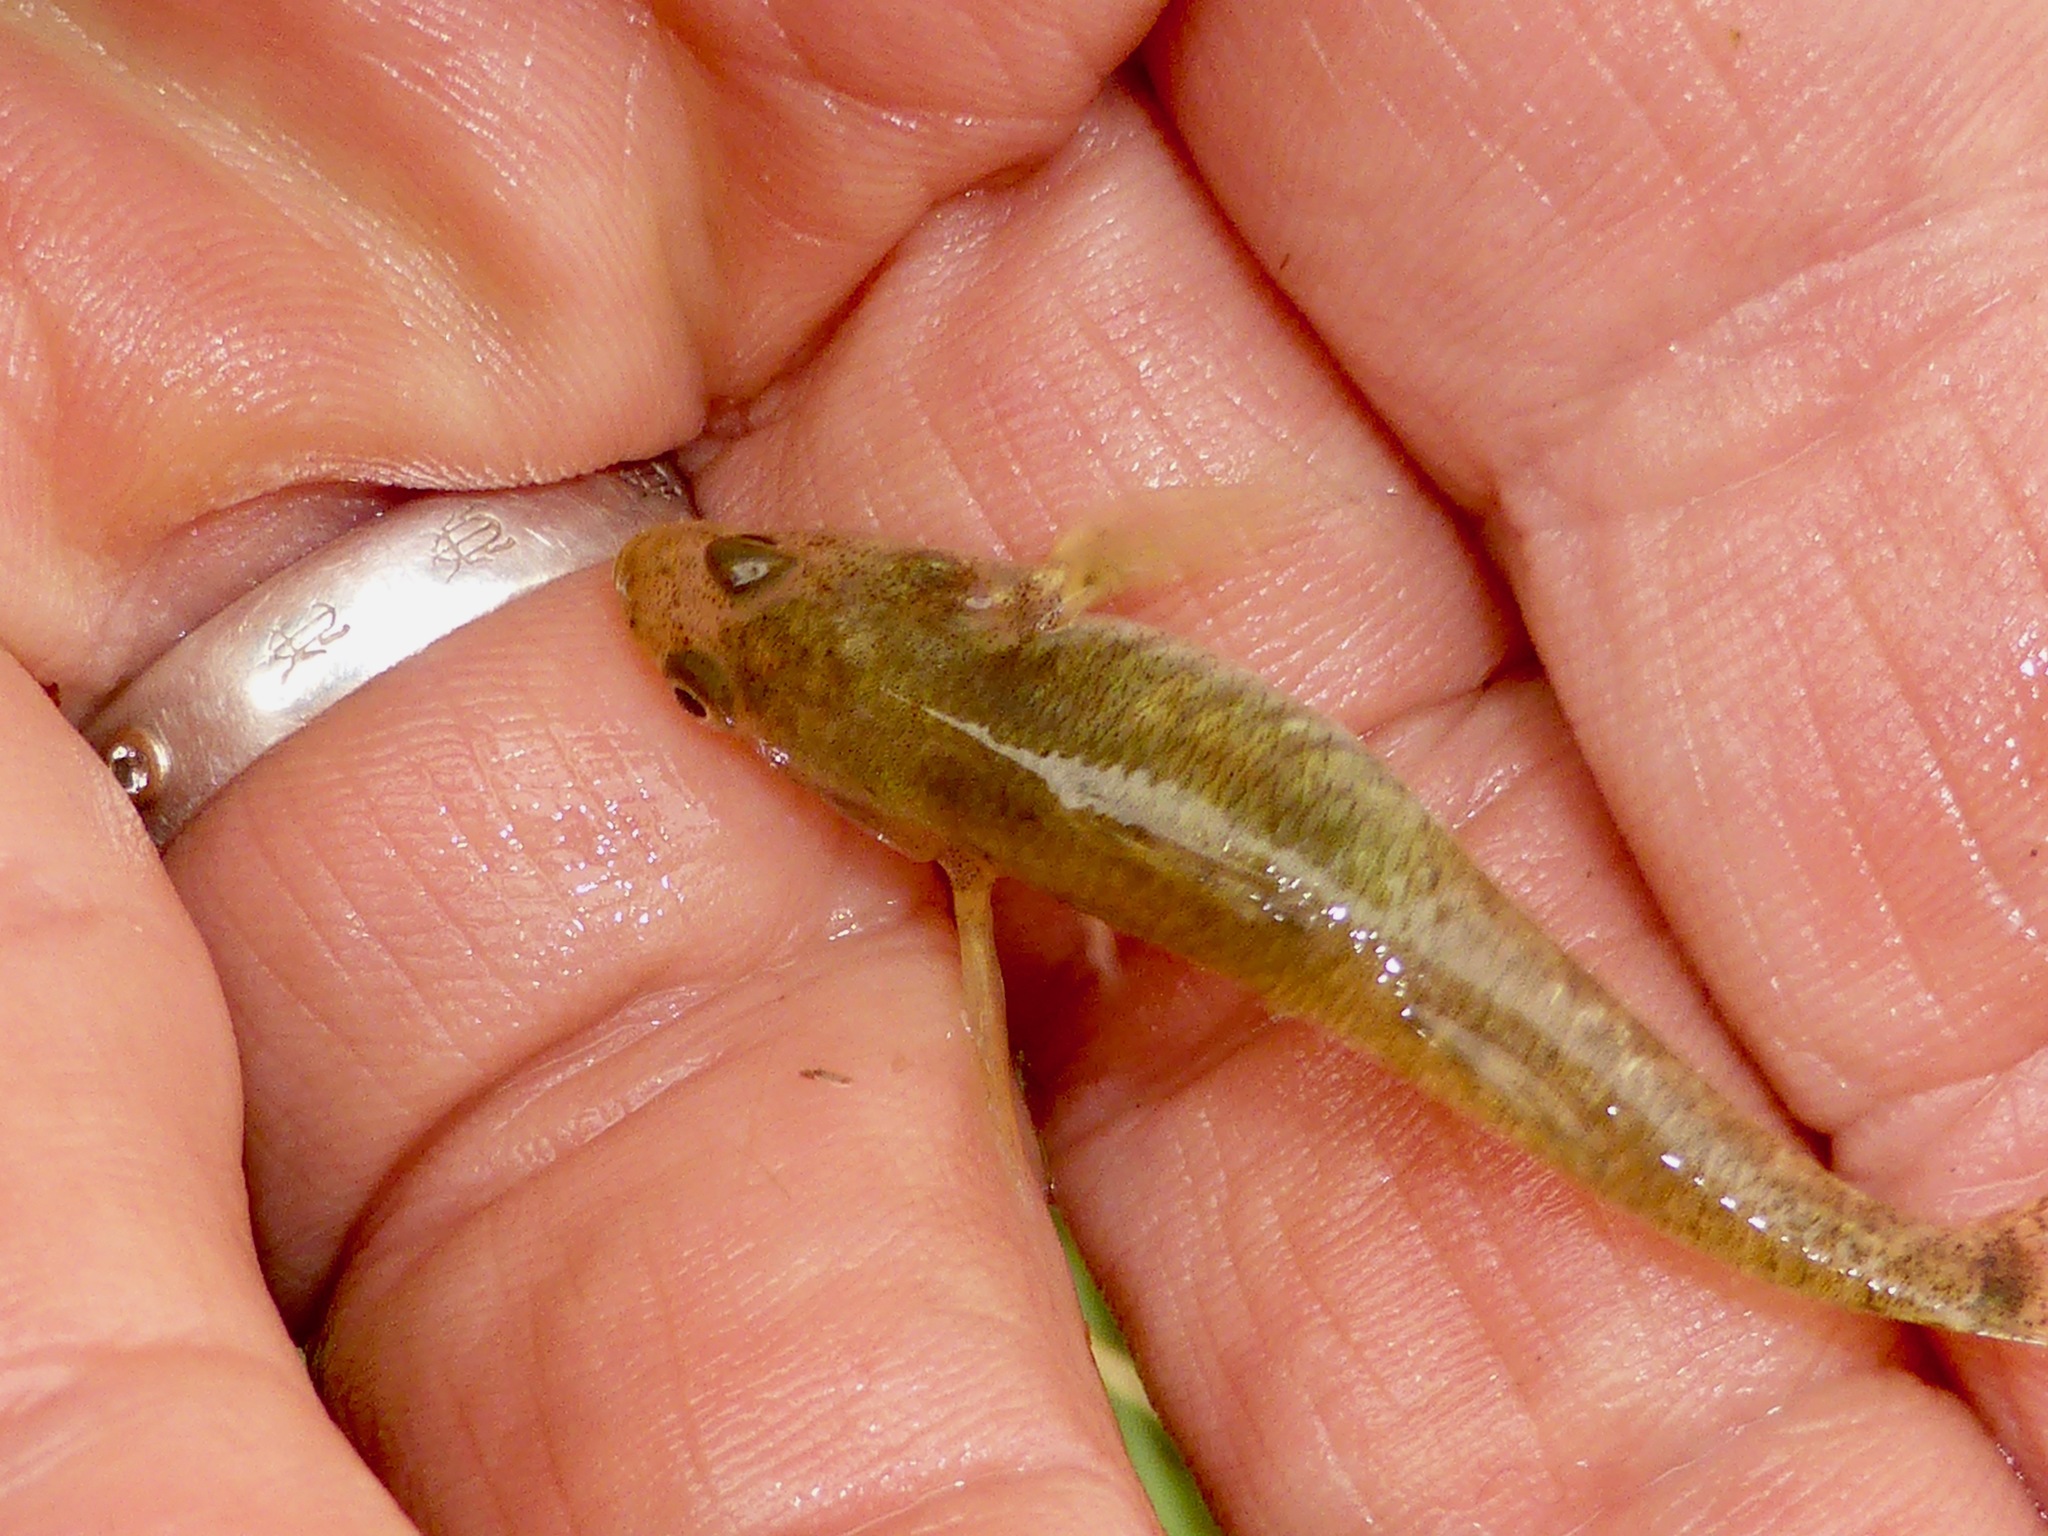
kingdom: Animalia
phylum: Chordata
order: Perciformes
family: Eleotridae
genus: Gobiomorphus
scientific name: Gobiomorphus cotidianus
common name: Common bully
